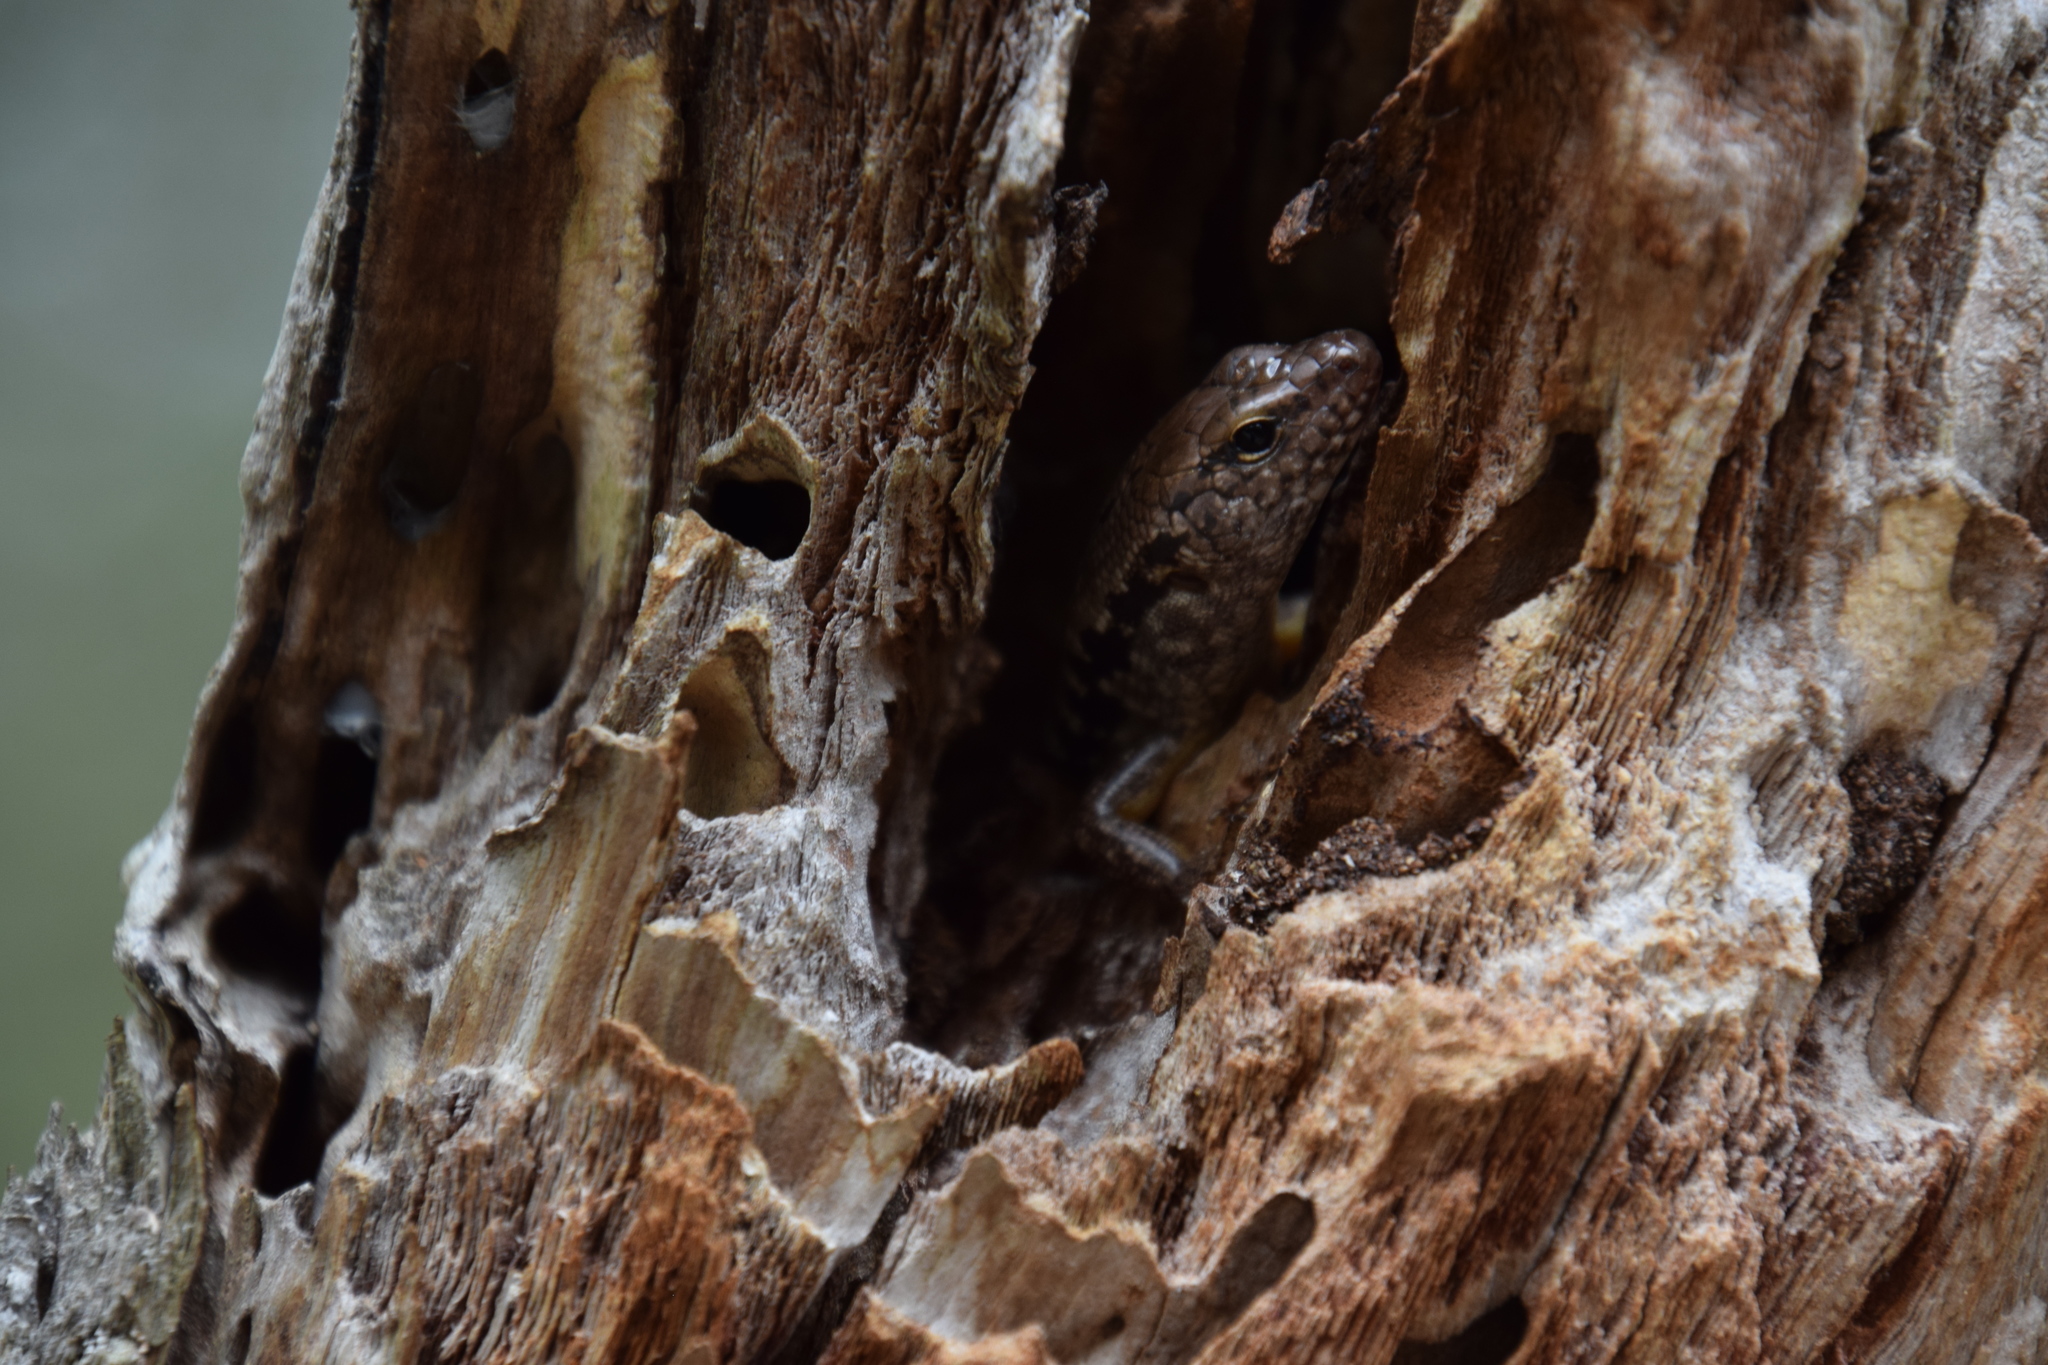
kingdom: Animalia
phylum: Chordata
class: Squamata
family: Scincidae
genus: Concinnia
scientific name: Concinnia tenuis
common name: Bar-sided forest-skink
